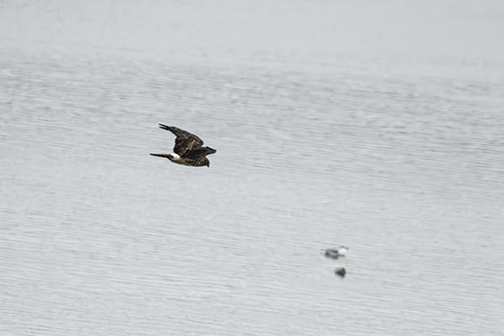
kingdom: Animalia
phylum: Chordata
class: Aves
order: Accipitriformes
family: Accipitridae
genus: Circus
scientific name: Circus cyaneus
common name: Hen harrier
